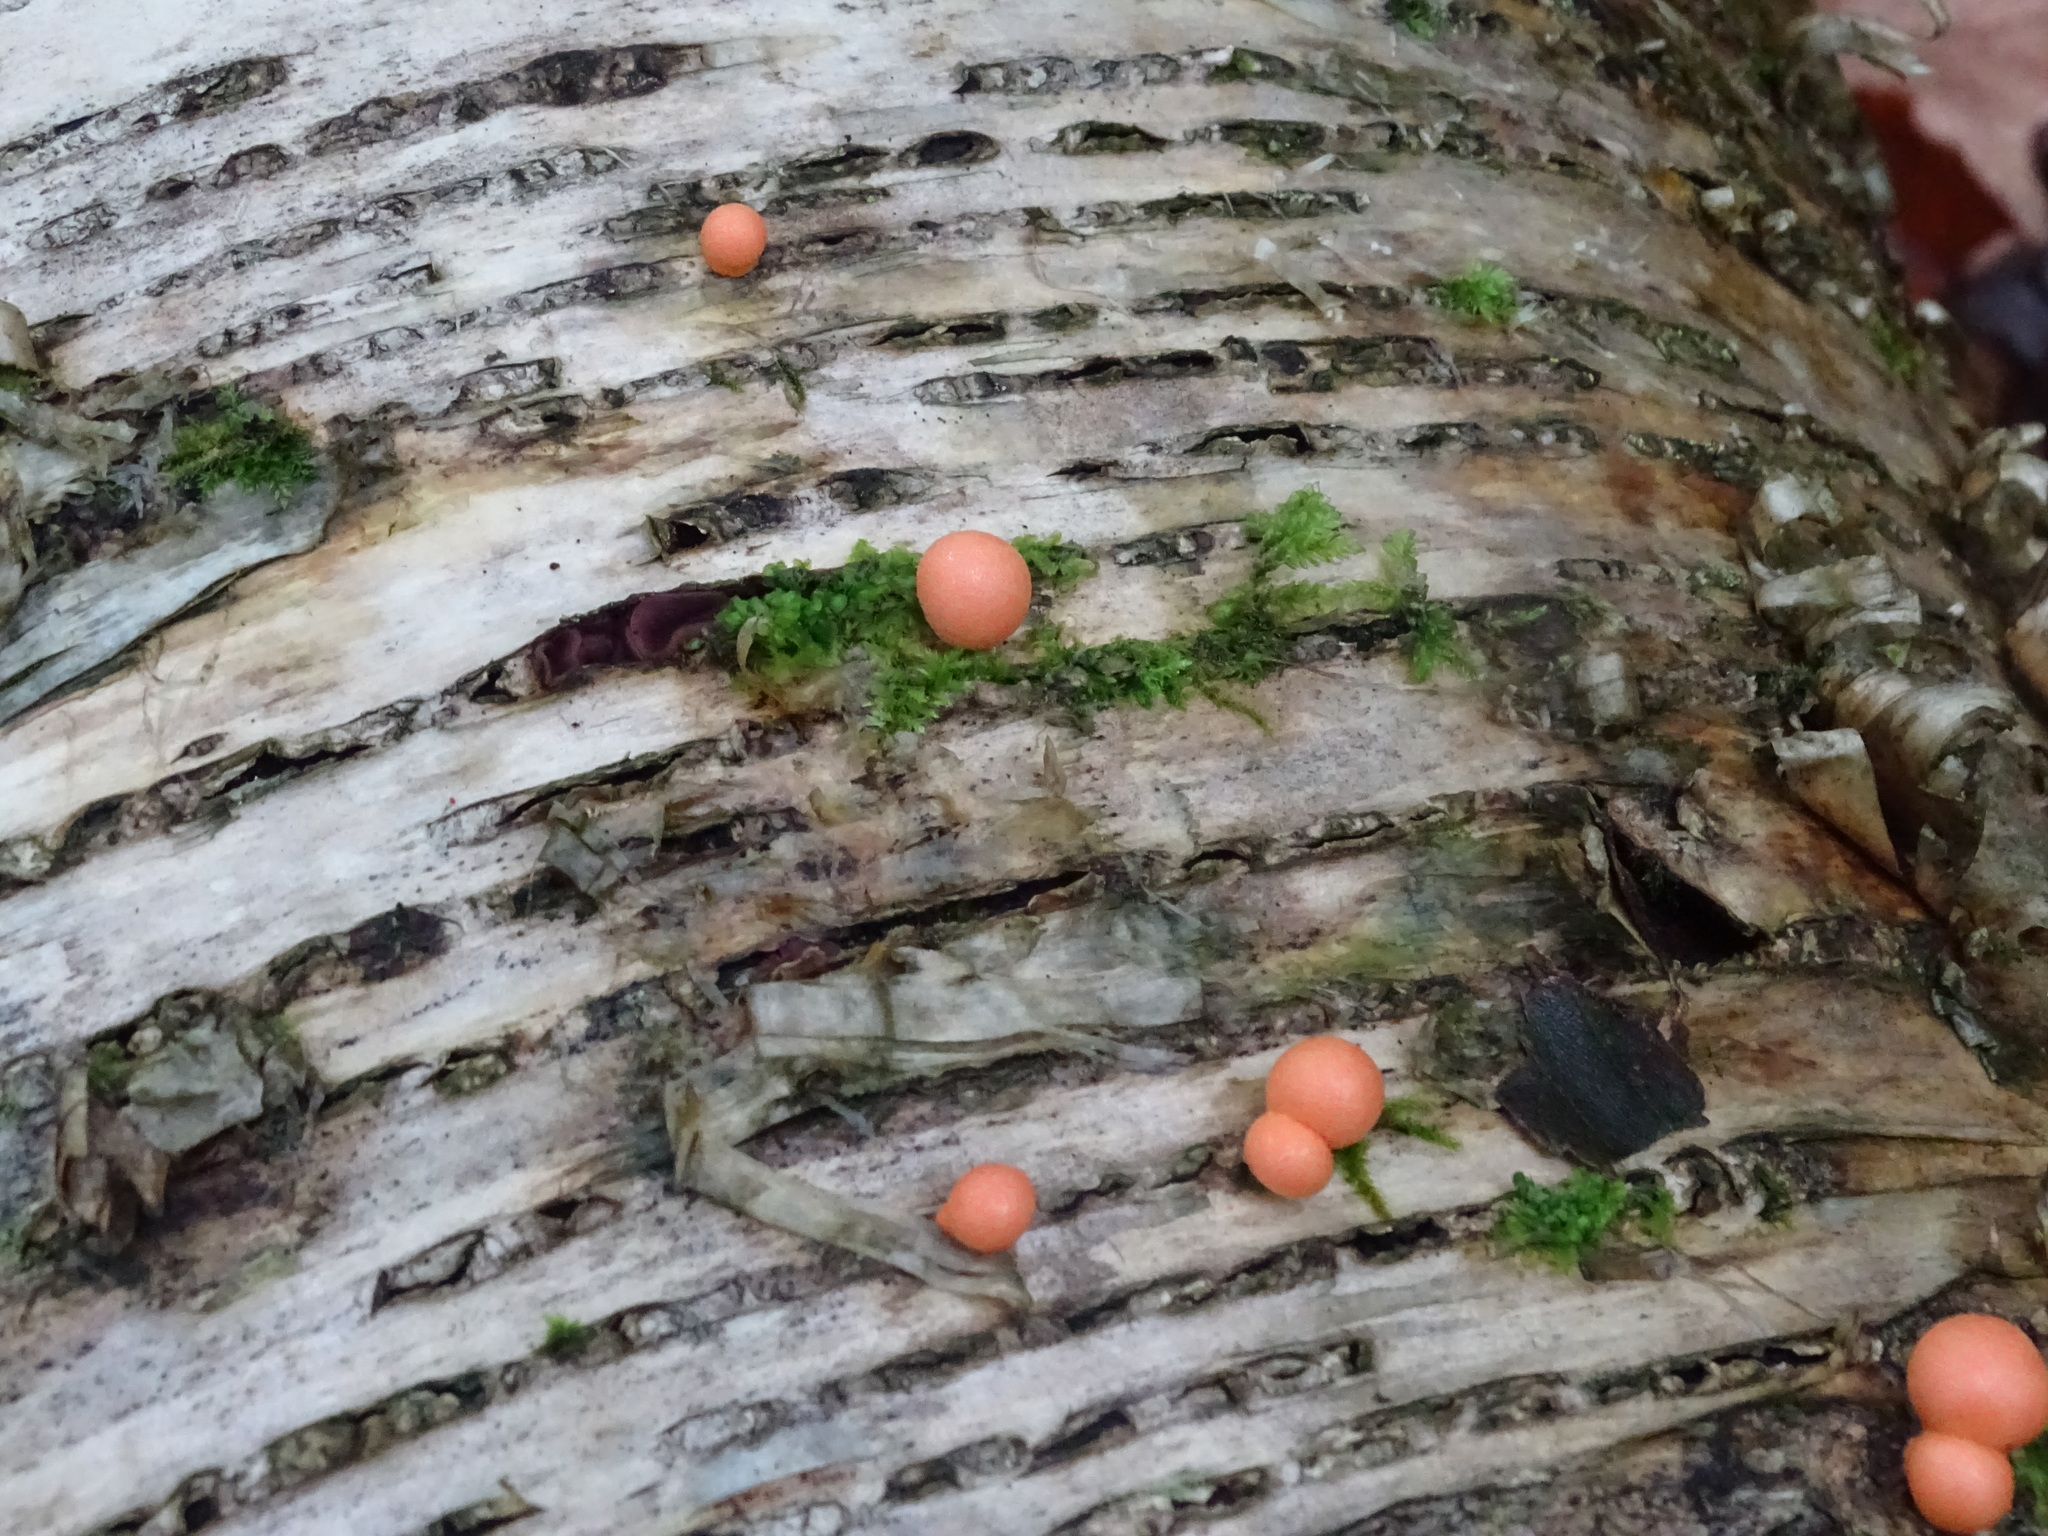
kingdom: Protozoa
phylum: Mycetozoa
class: Myxomycetes
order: Cribrariales
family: Tubiferaceae
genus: Lycogala
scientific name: Lycogala epidendrum
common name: Wolf's milk
